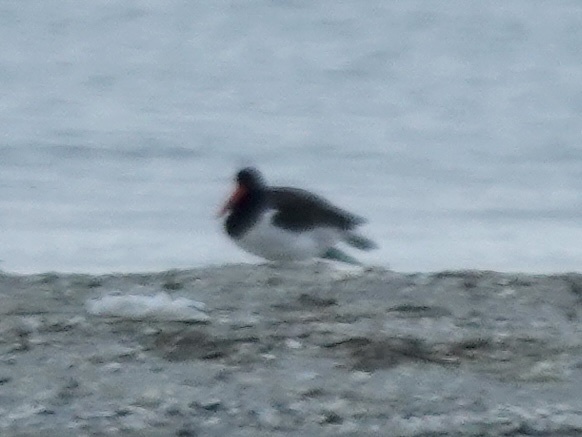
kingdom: Animalia
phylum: Chordata
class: Aves
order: Charadriiformes
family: Haematopodidae
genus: Haematopus
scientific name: Haematopus palliatus
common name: American oystercatcher
